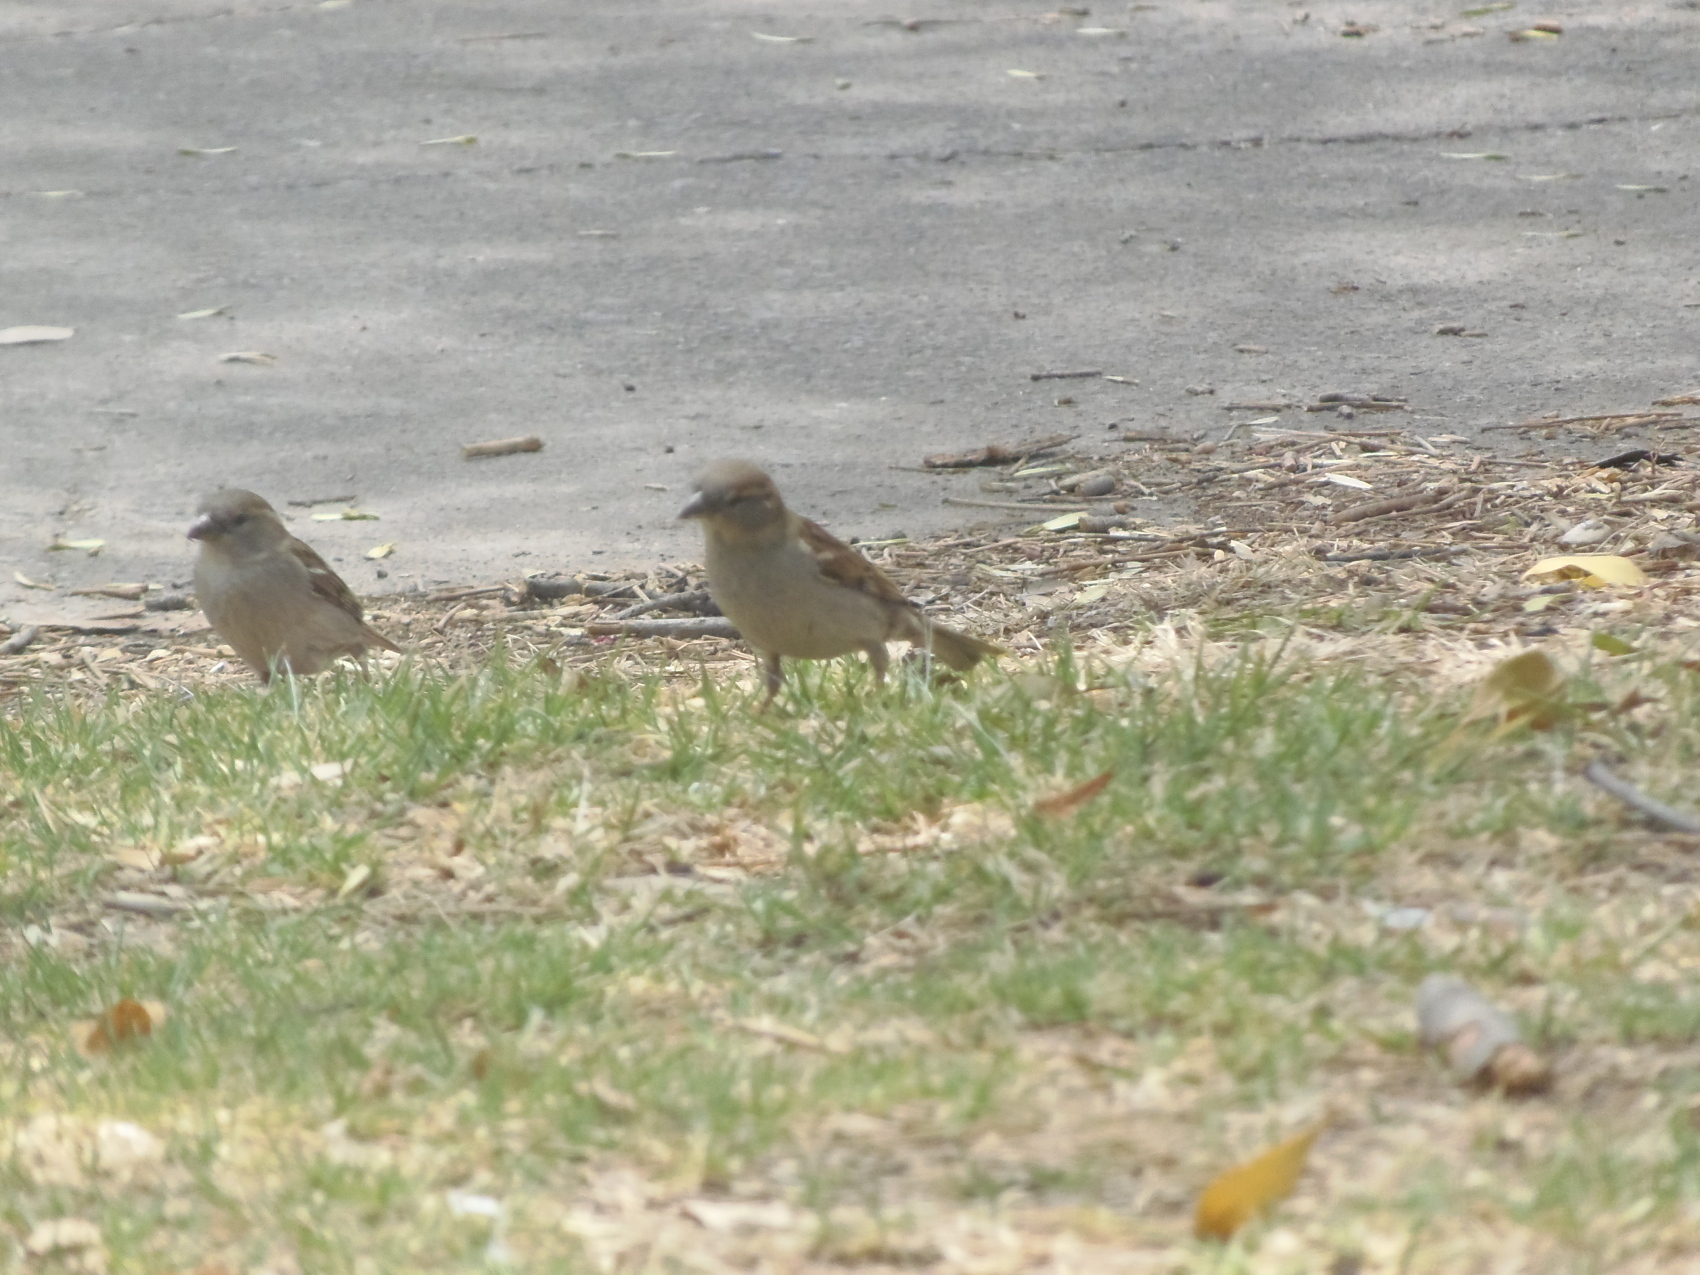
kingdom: Animalia
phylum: Chordata
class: Aves
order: Passeriformes
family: Passeridae
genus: Passer
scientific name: Passer domesticus
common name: House sparrow
